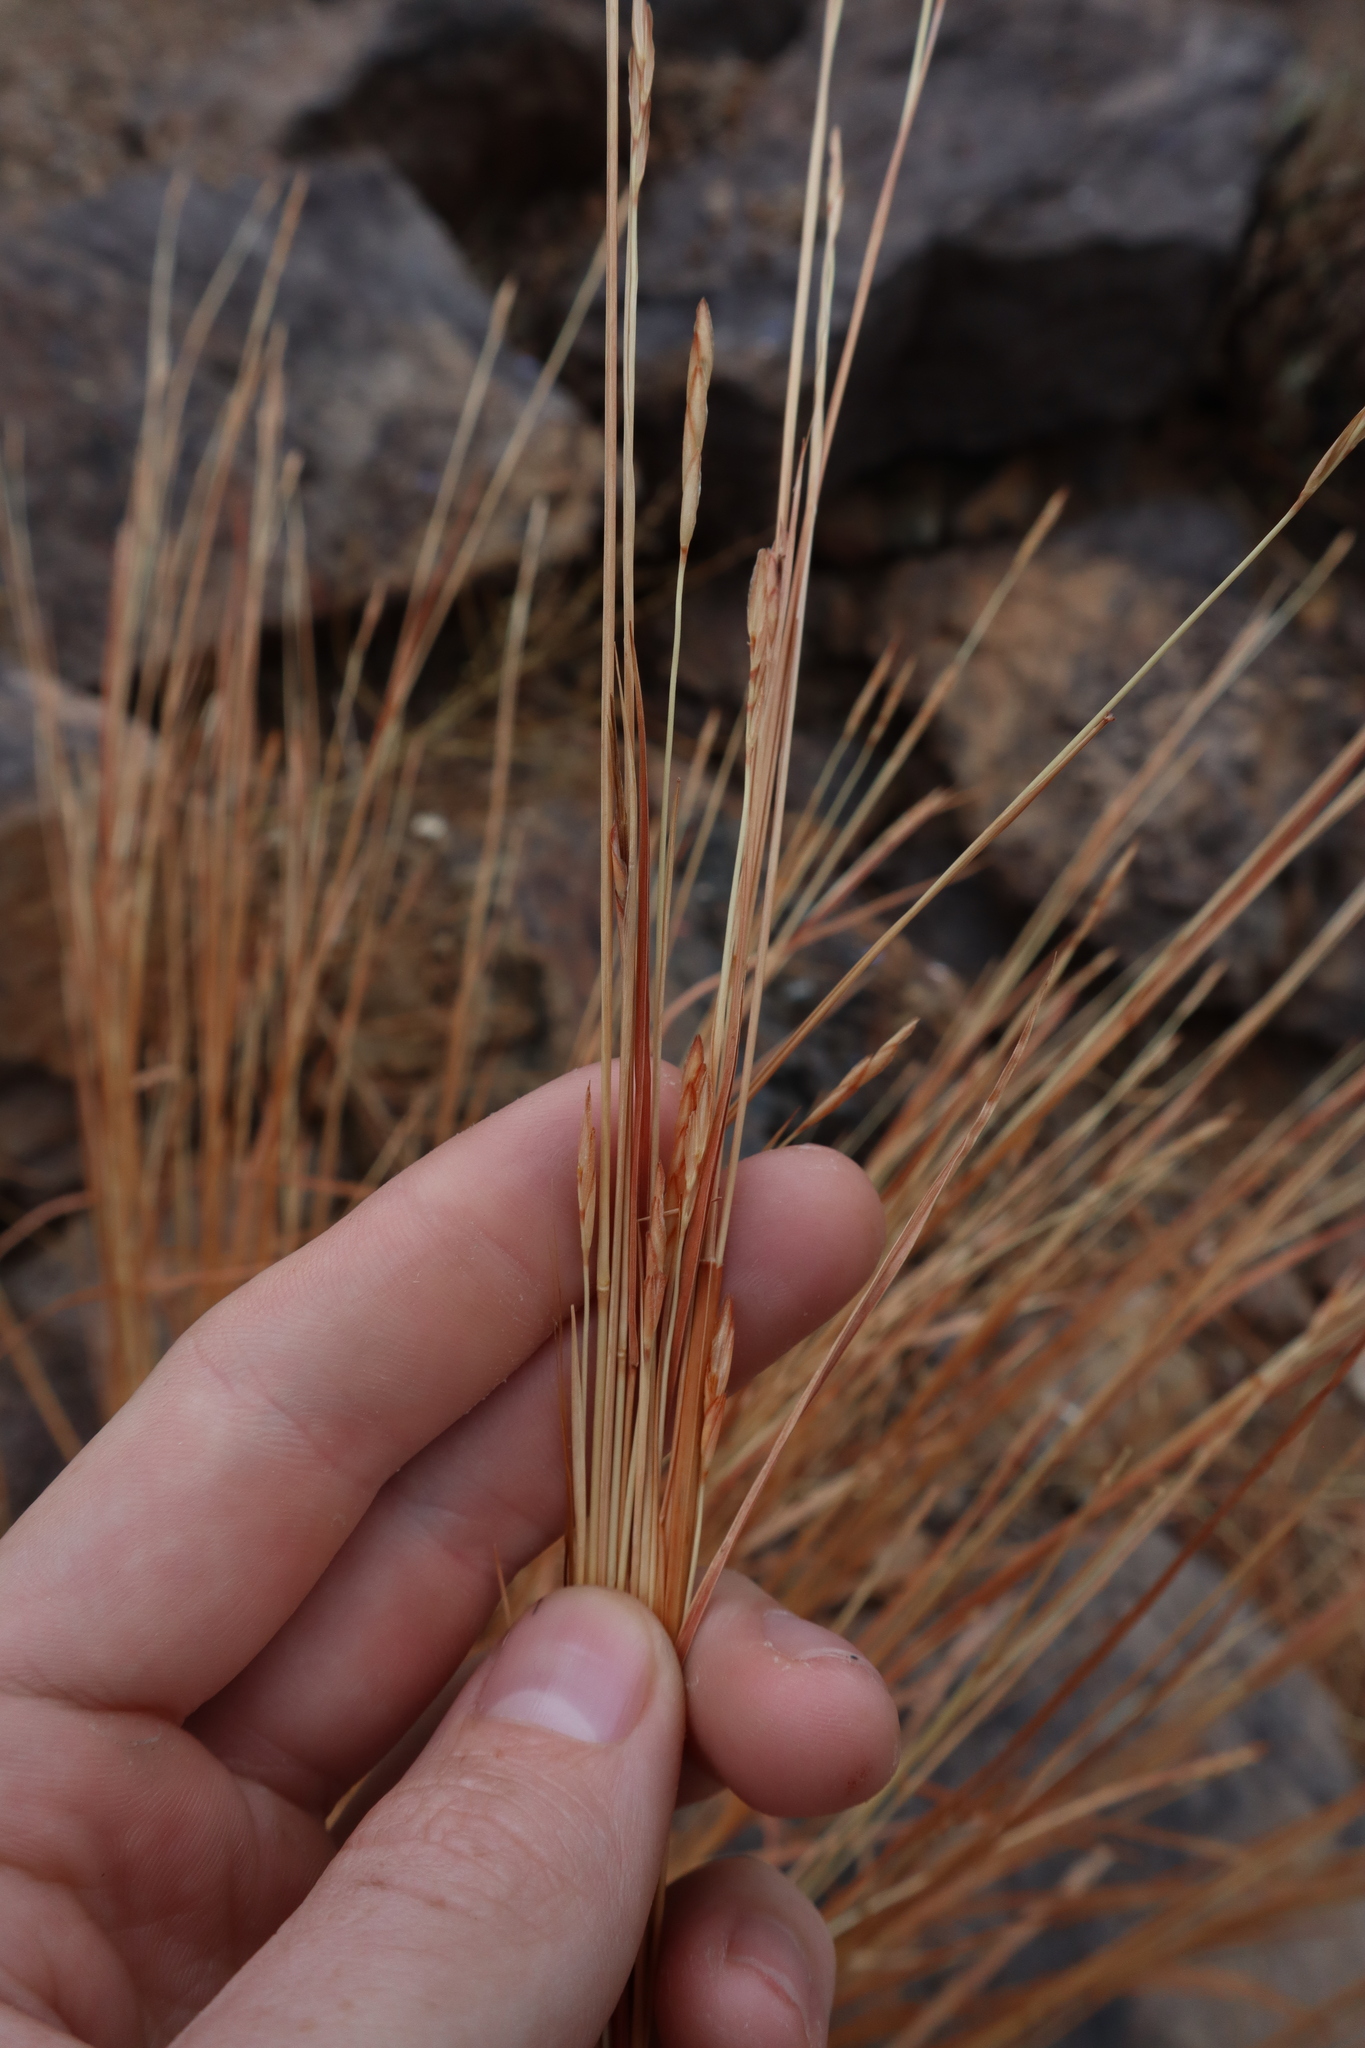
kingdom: Plantae
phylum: Tracheophyta
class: Liliopsida
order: Poales
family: Poaceae
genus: Heteropogon
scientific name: Heteropogon contortus
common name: Tanglehead
